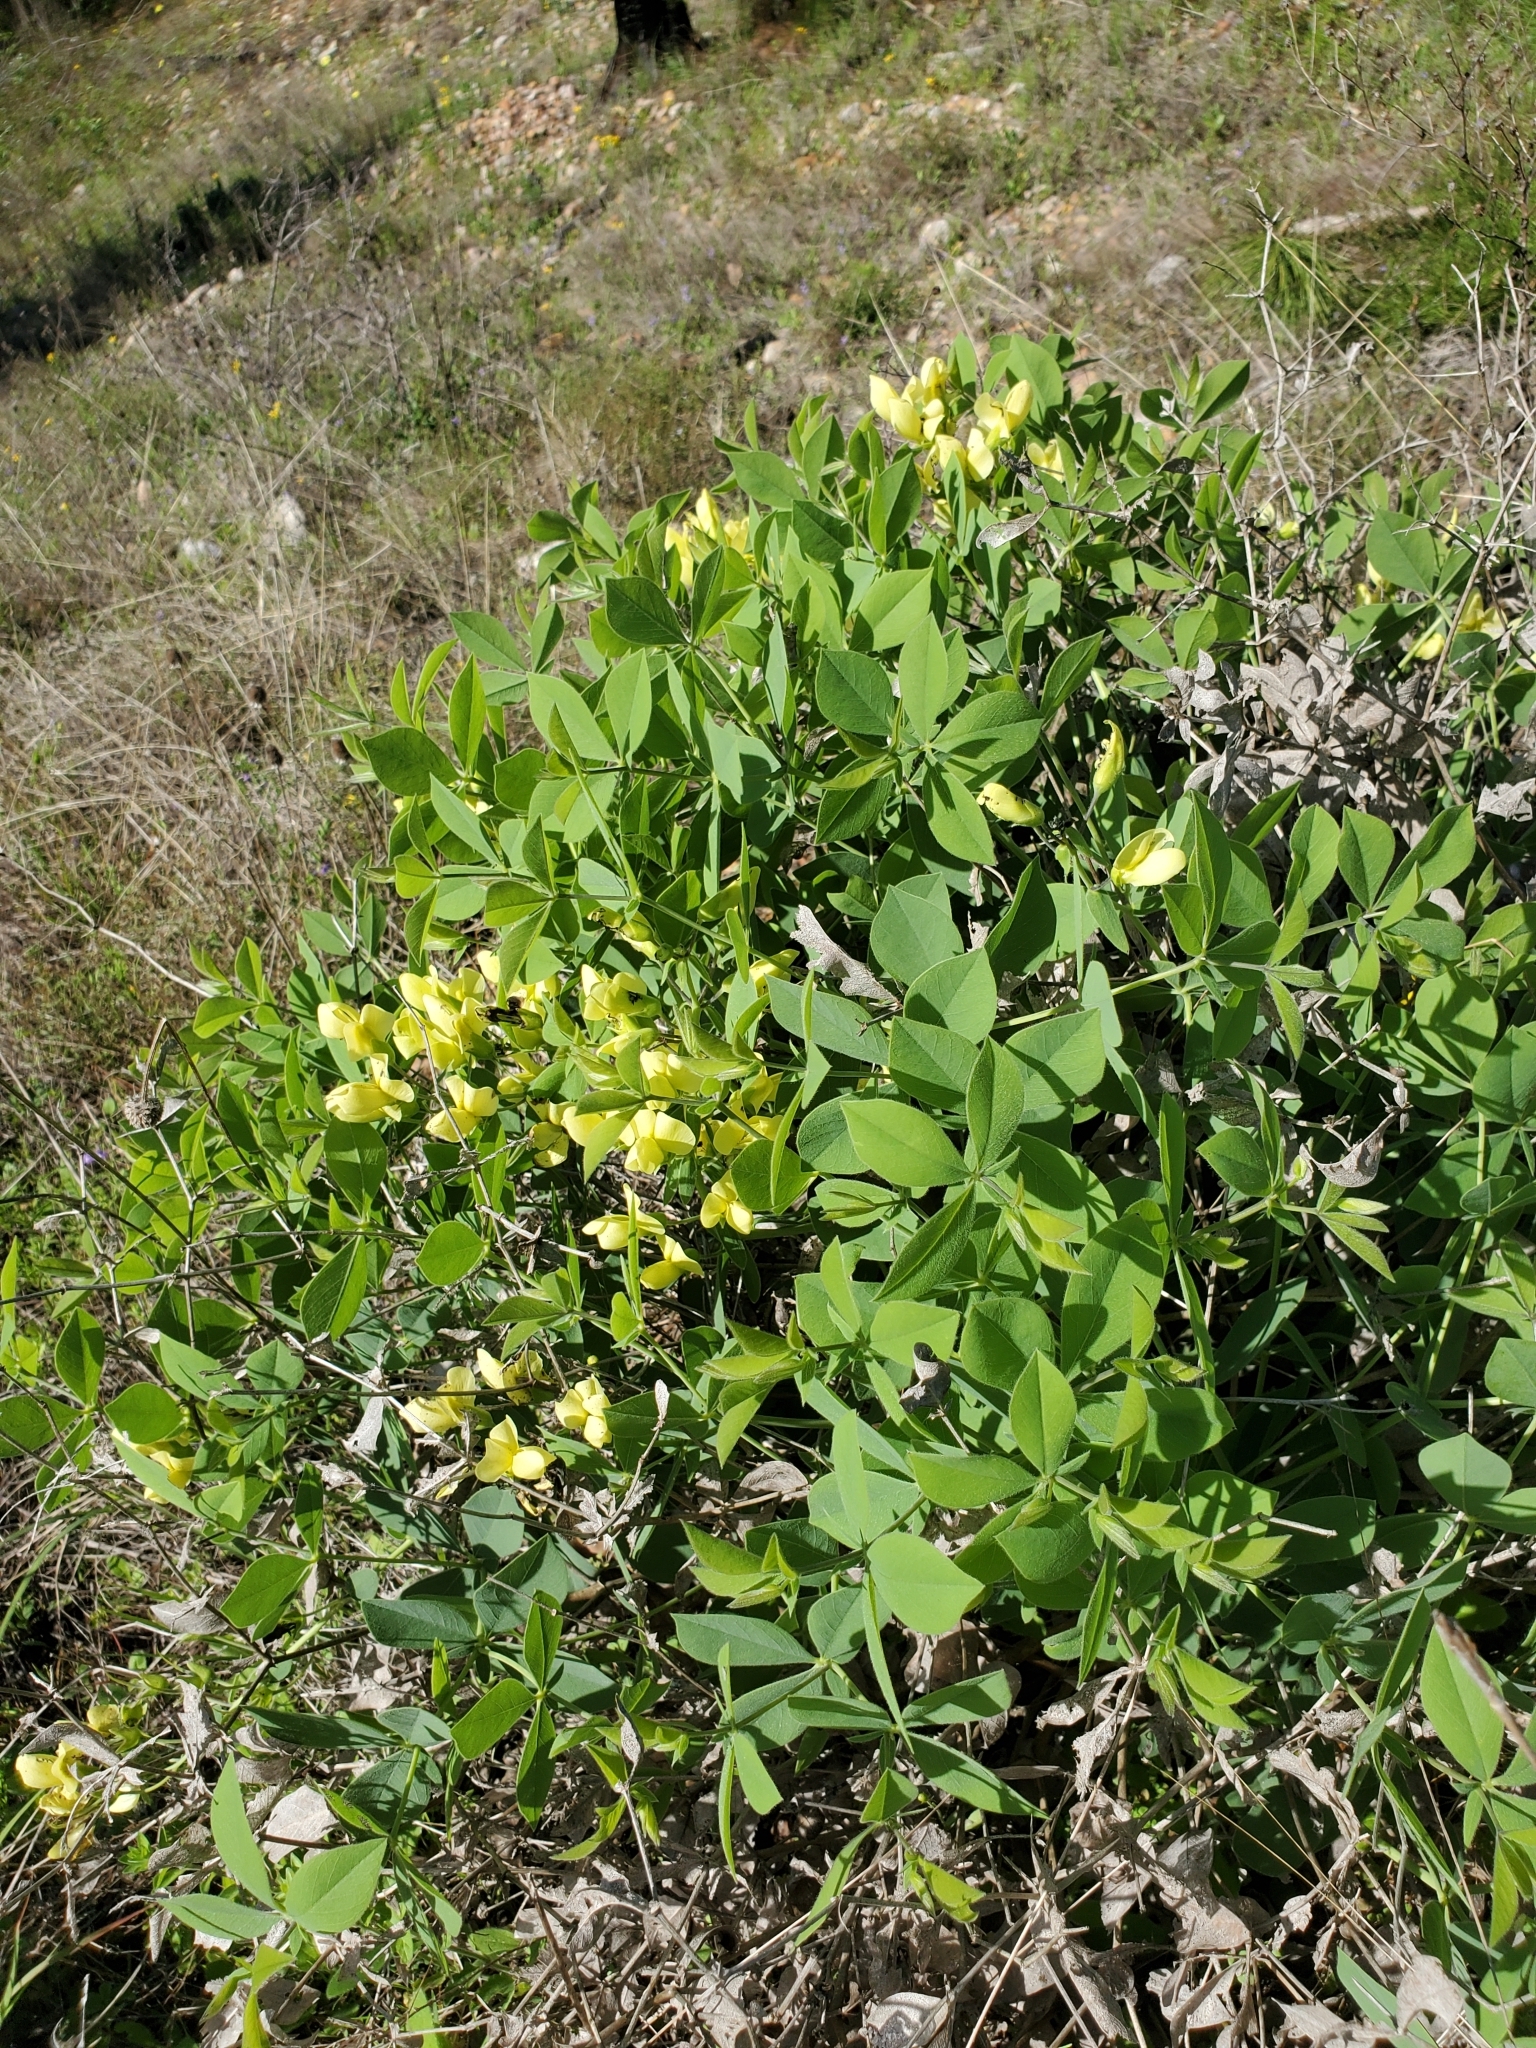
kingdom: Plantae
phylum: Tracheophyta
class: Magnoliopsida
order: Fabales
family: Fabaceae
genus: Baptisia
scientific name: Baptisia bracteata
